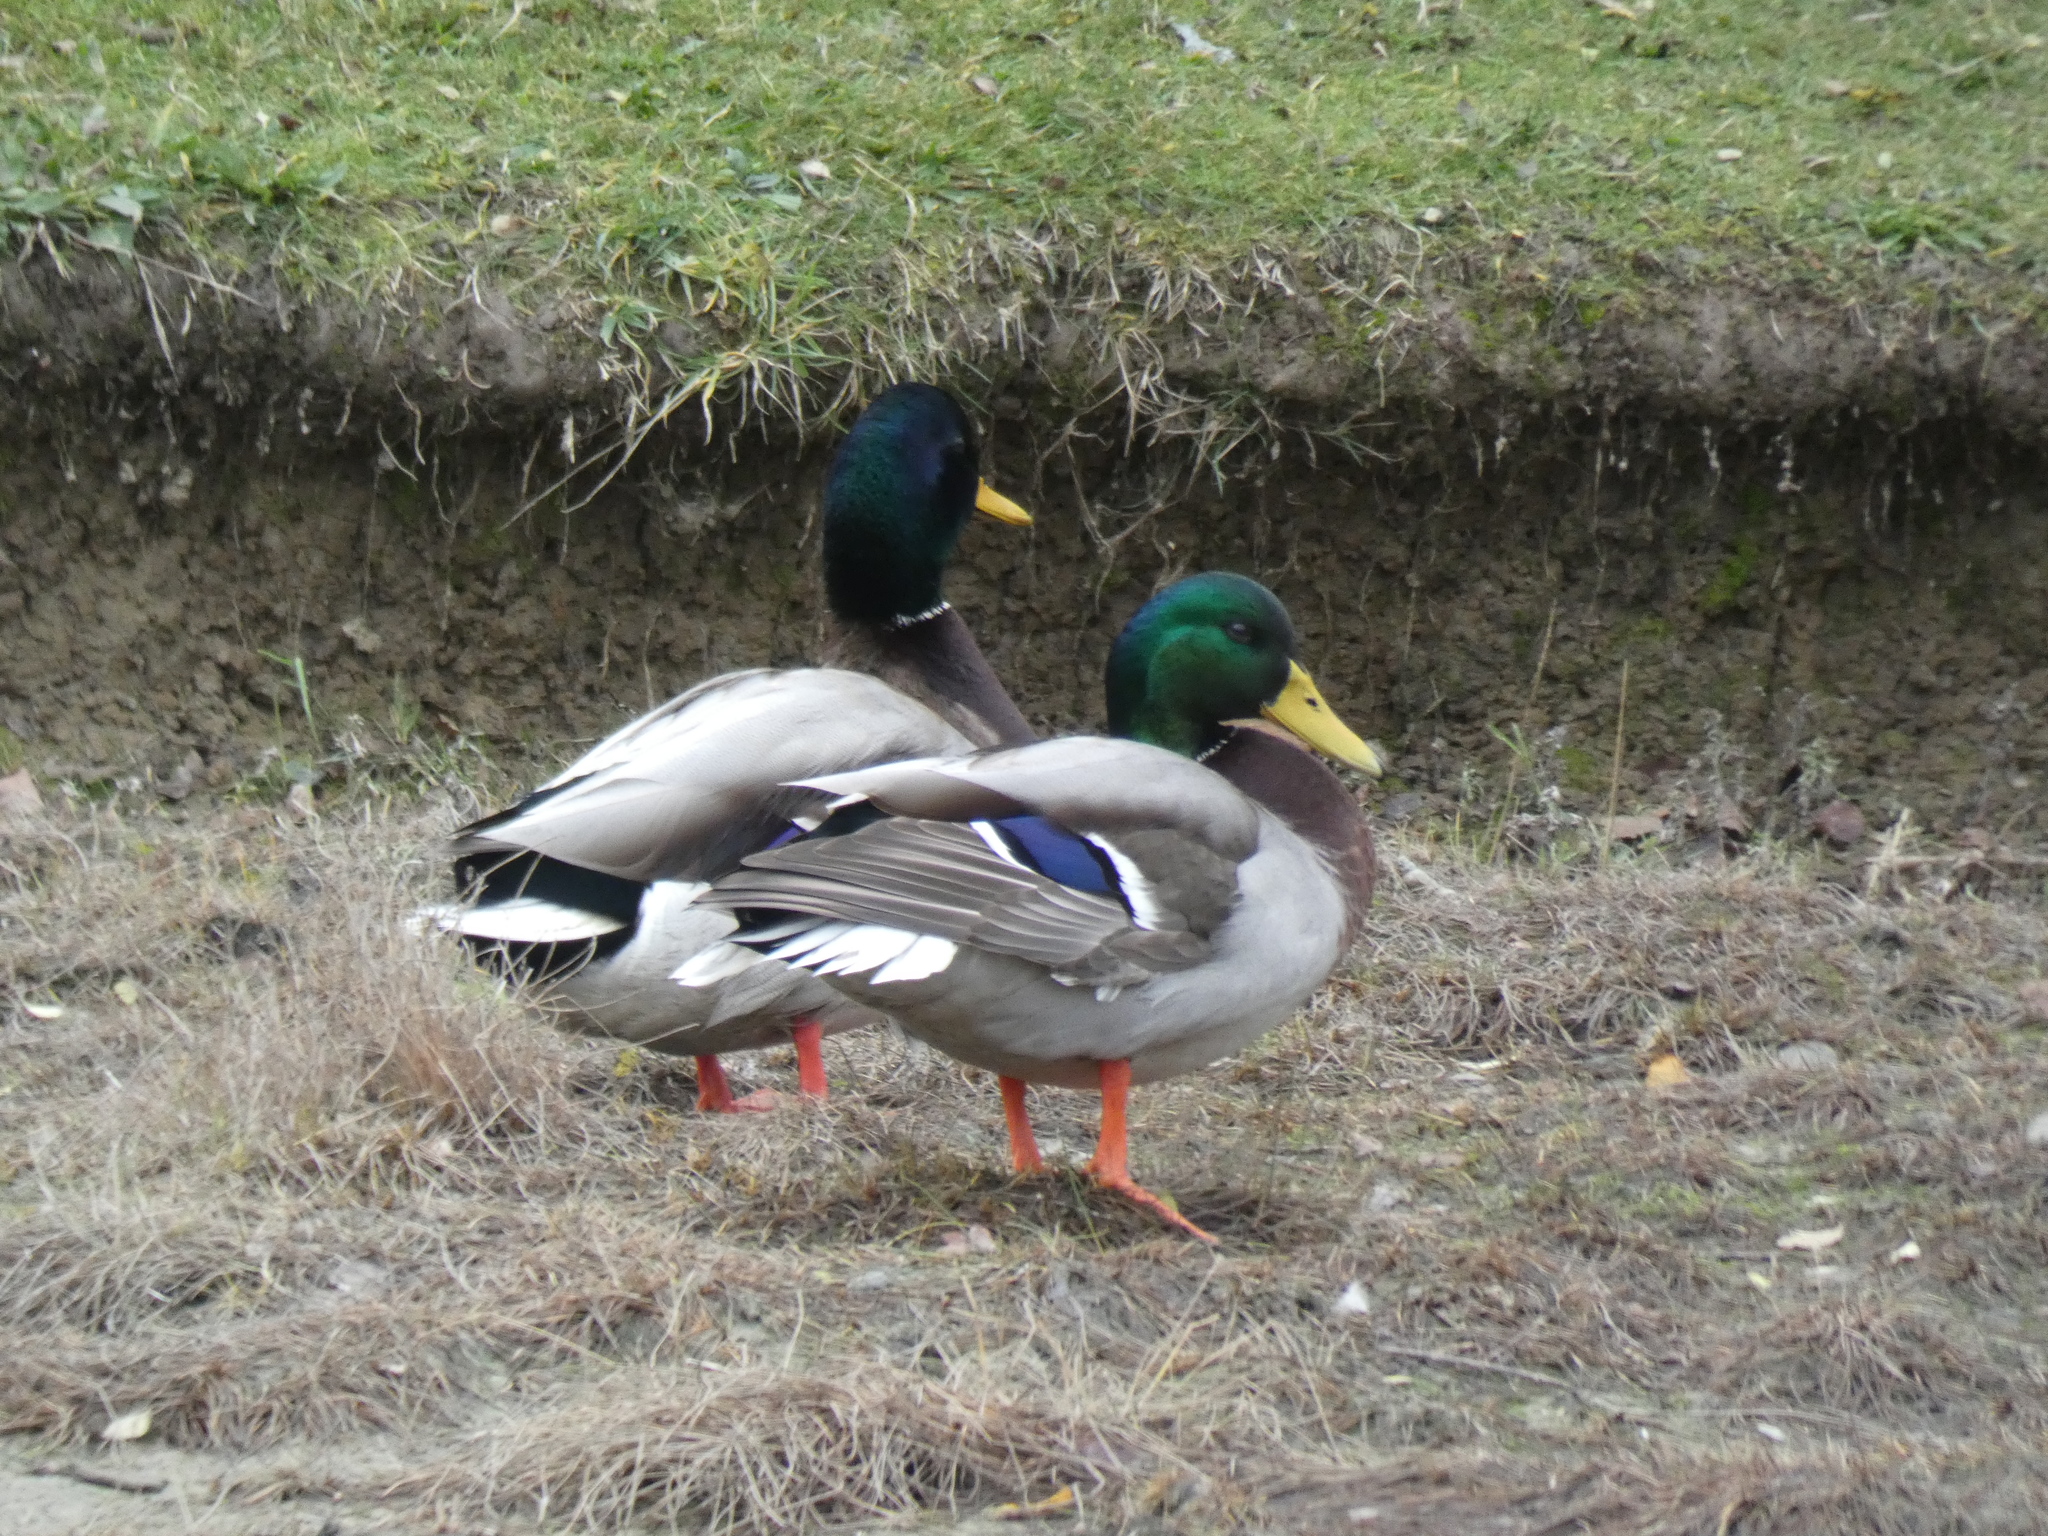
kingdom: Animalia
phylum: Chordata
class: Aves
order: Anseriformes
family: Anatidae
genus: Anas
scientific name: Anas platyrhynchos
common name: Mallard
